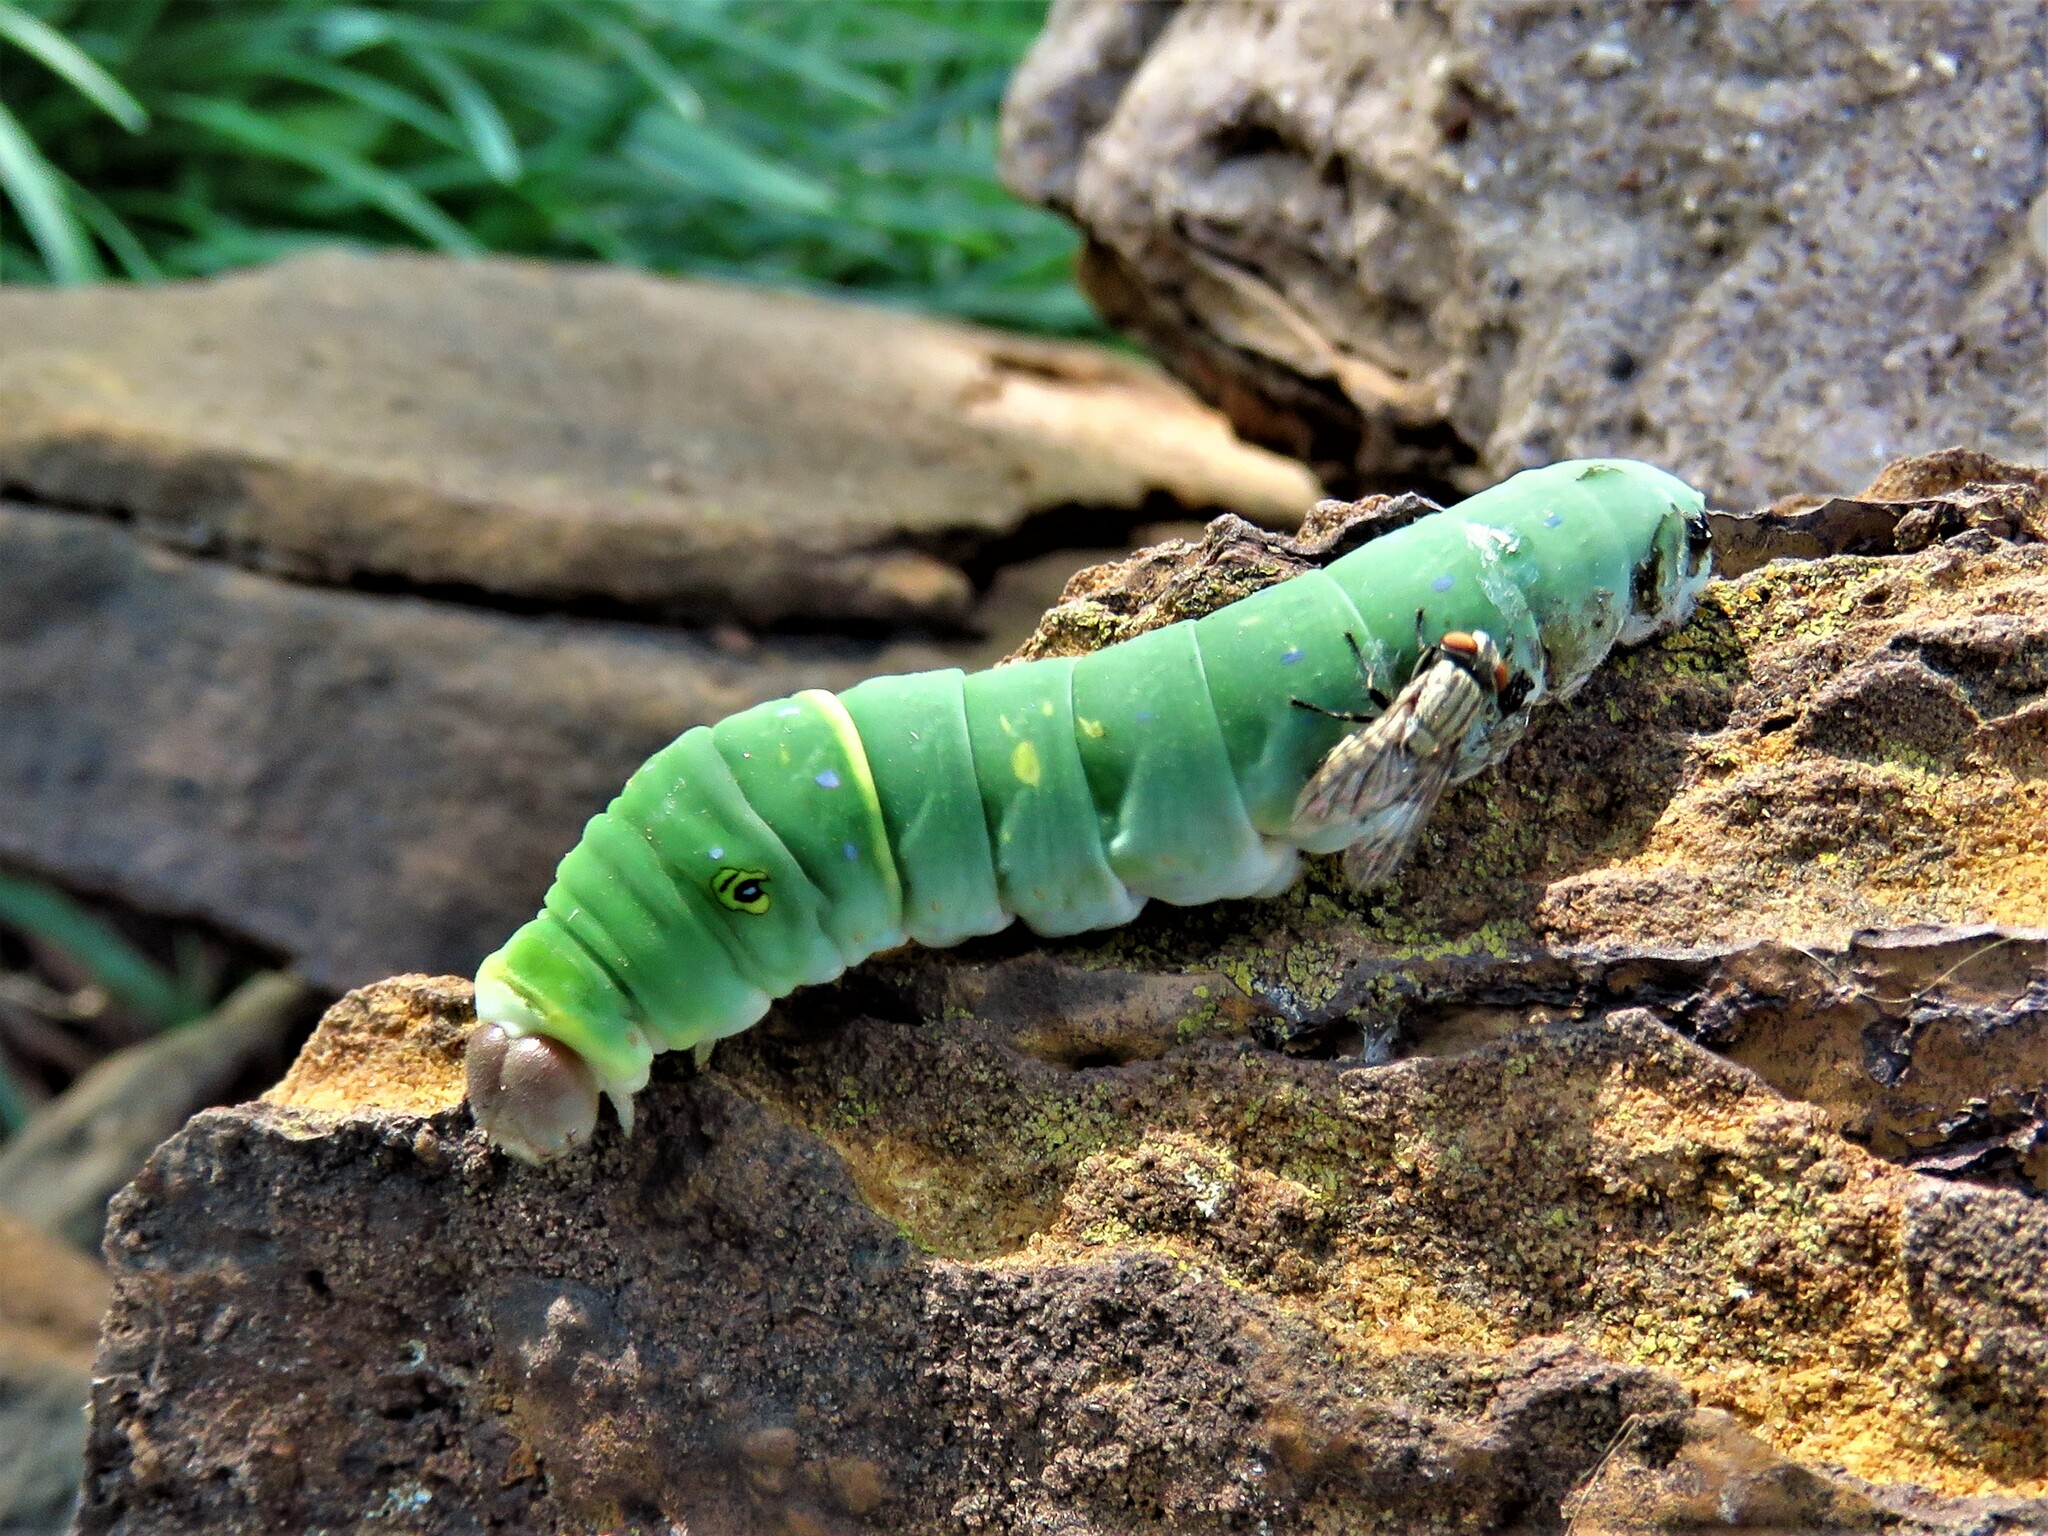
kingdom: Animalia
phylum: Arthropoda
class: Insecta
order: Lepidoptera
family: Papilionidae
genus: Papilio
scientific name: Papilio glaucus
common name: Tiger swallowtail
